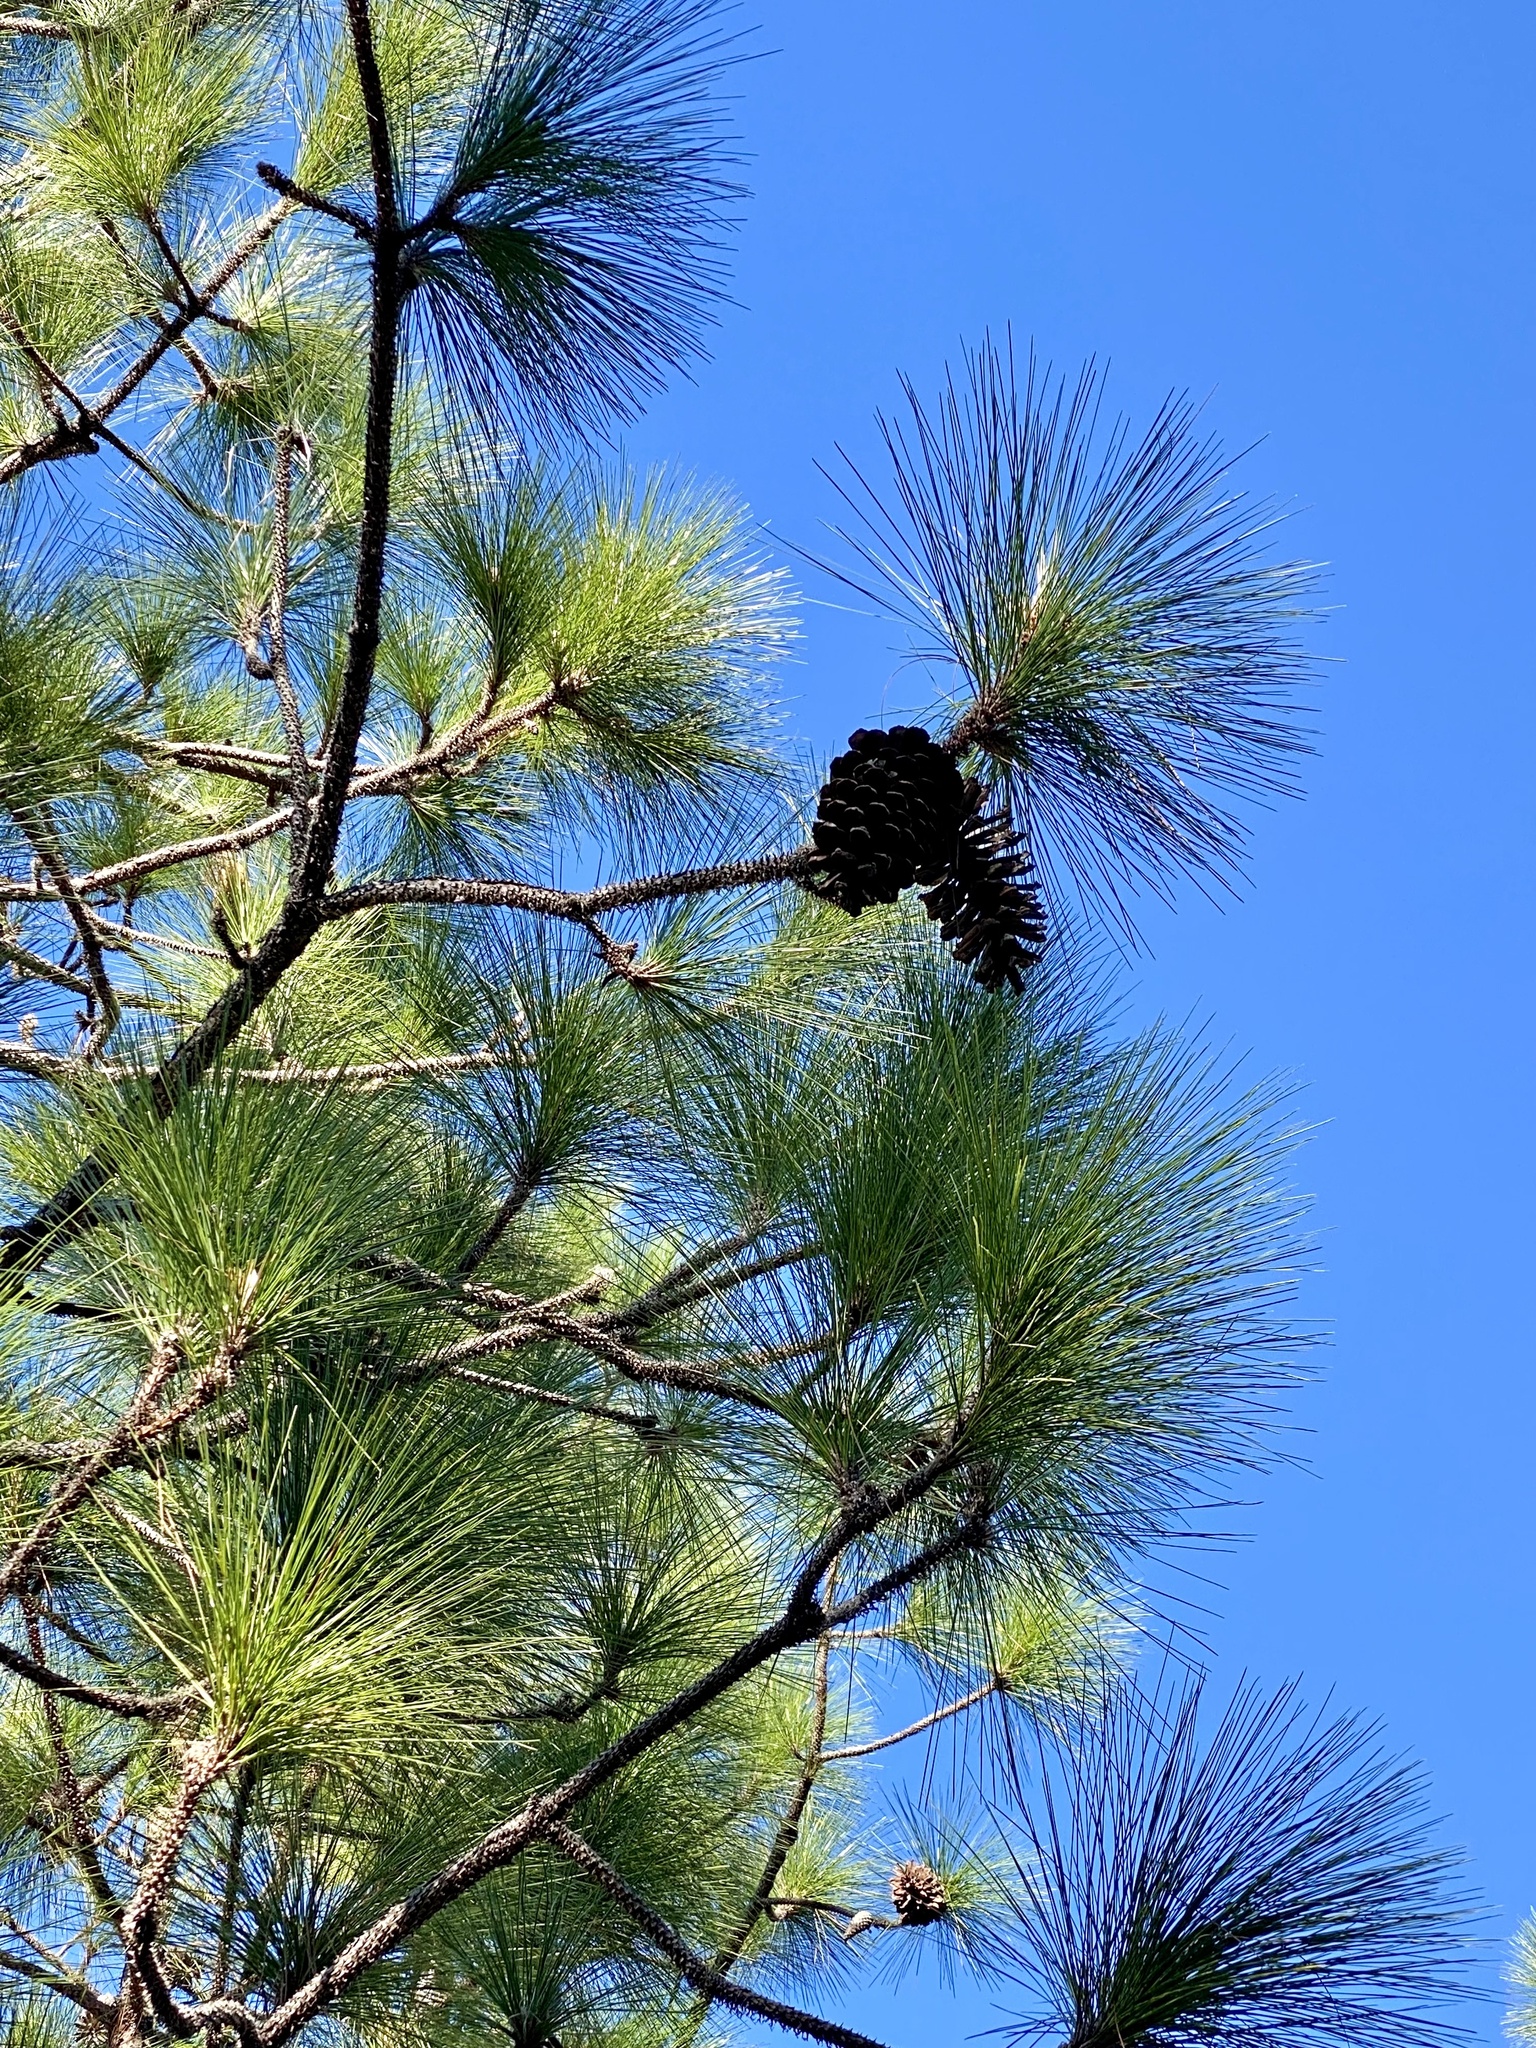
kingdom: Plantae
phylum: Tracheophyta
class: Pinopsida
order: Pinales
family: Pinaceae
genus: Pinus
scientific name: Pinus palustris
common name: Longleaf pine
